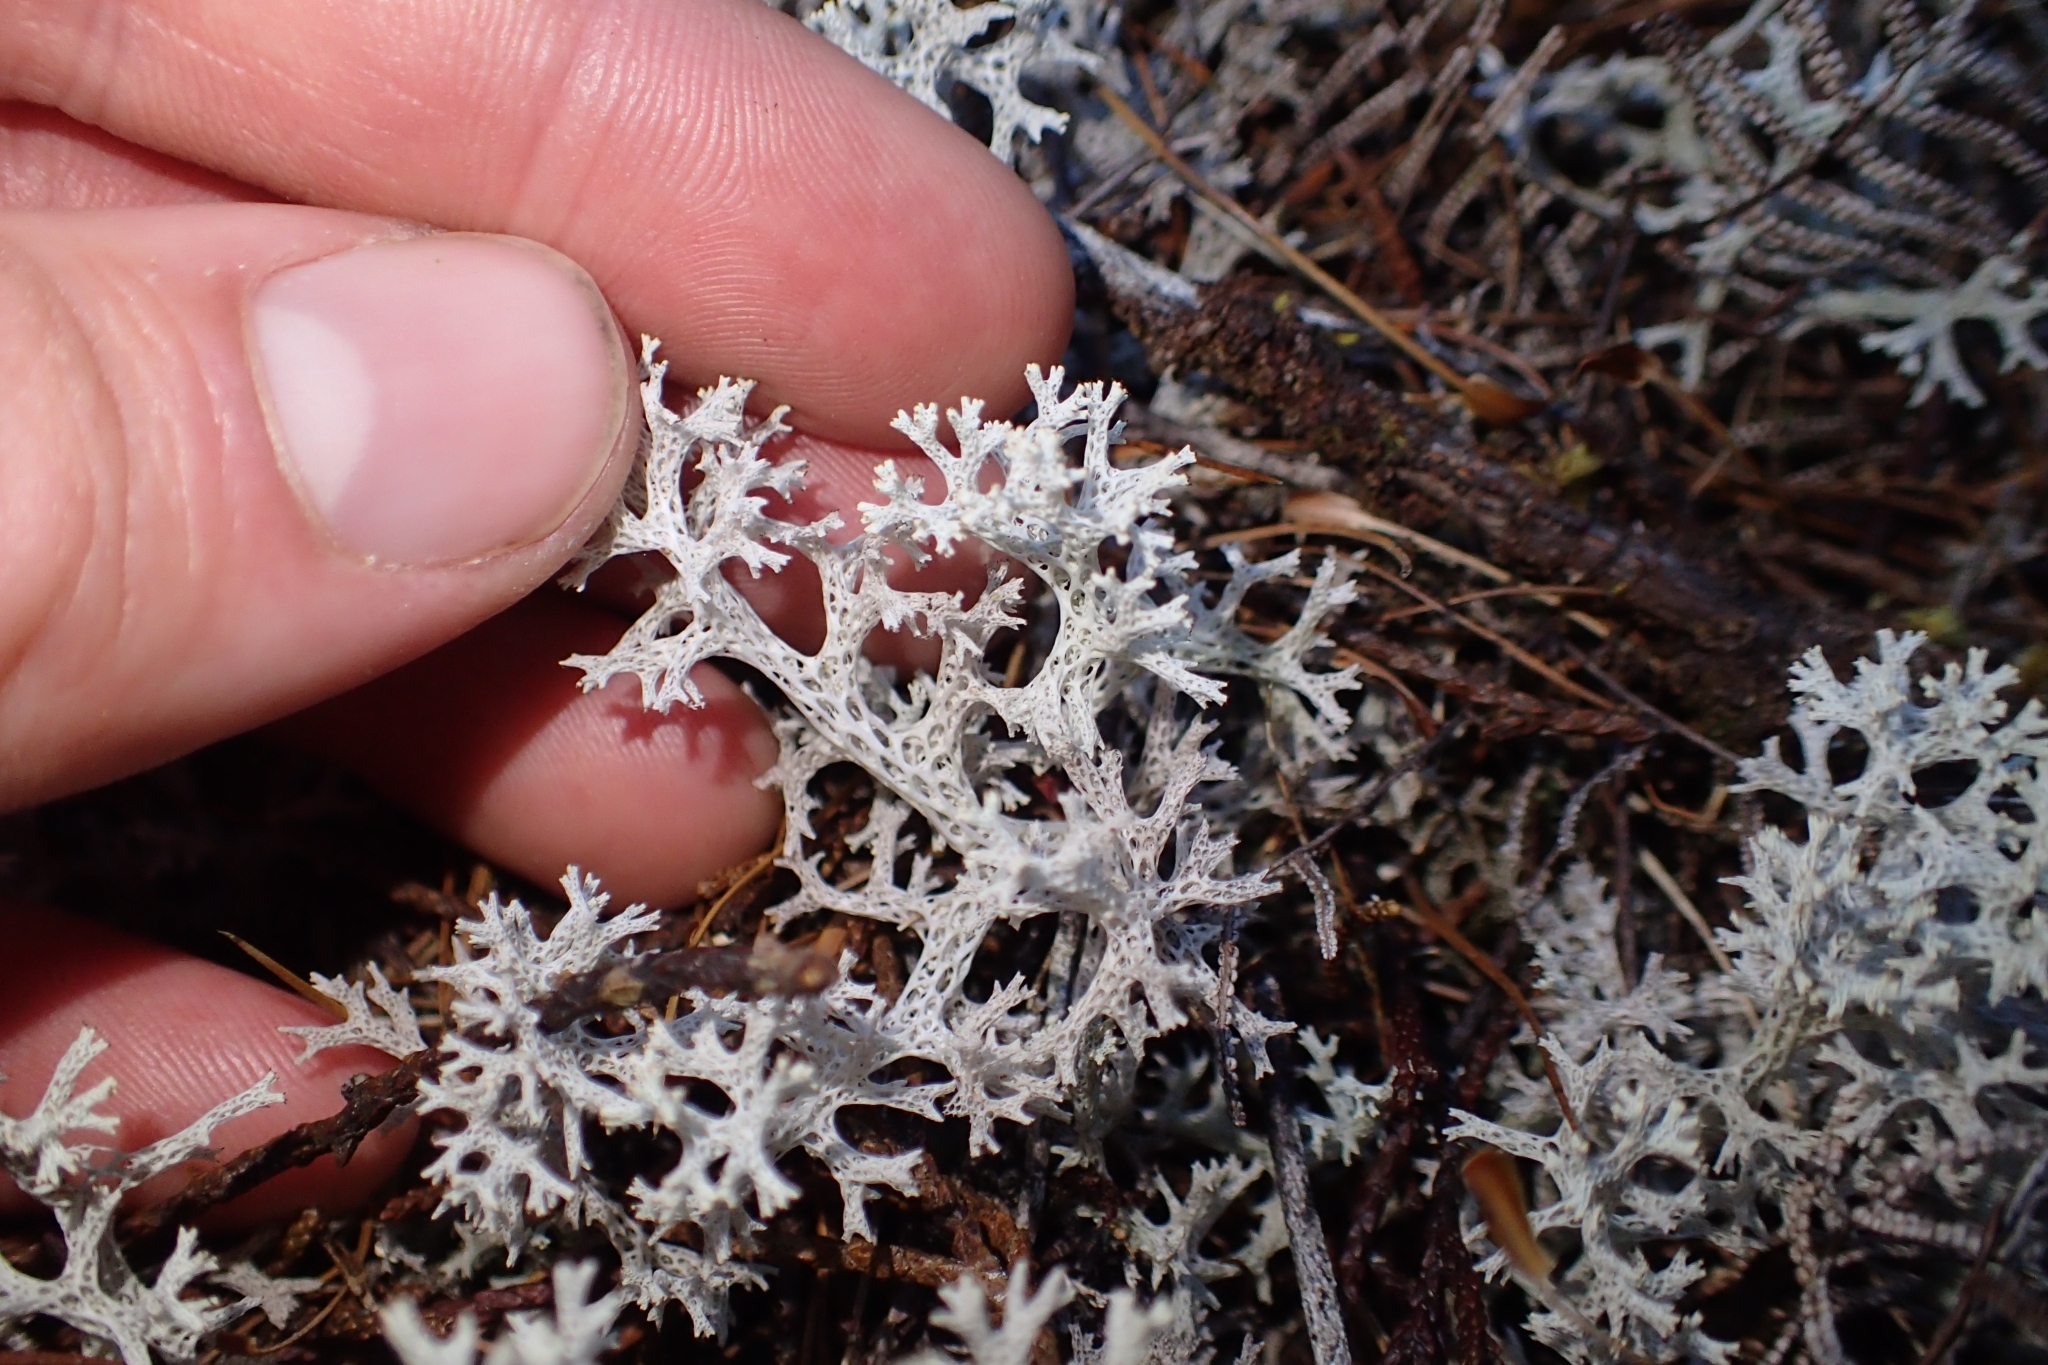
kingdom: Fungi
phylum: Ascomycota
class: Lecanoromycetes
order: Lecanorales
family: Cladoniaceae
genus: Pulchrocladia
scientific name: Pulchrocladia retipora
